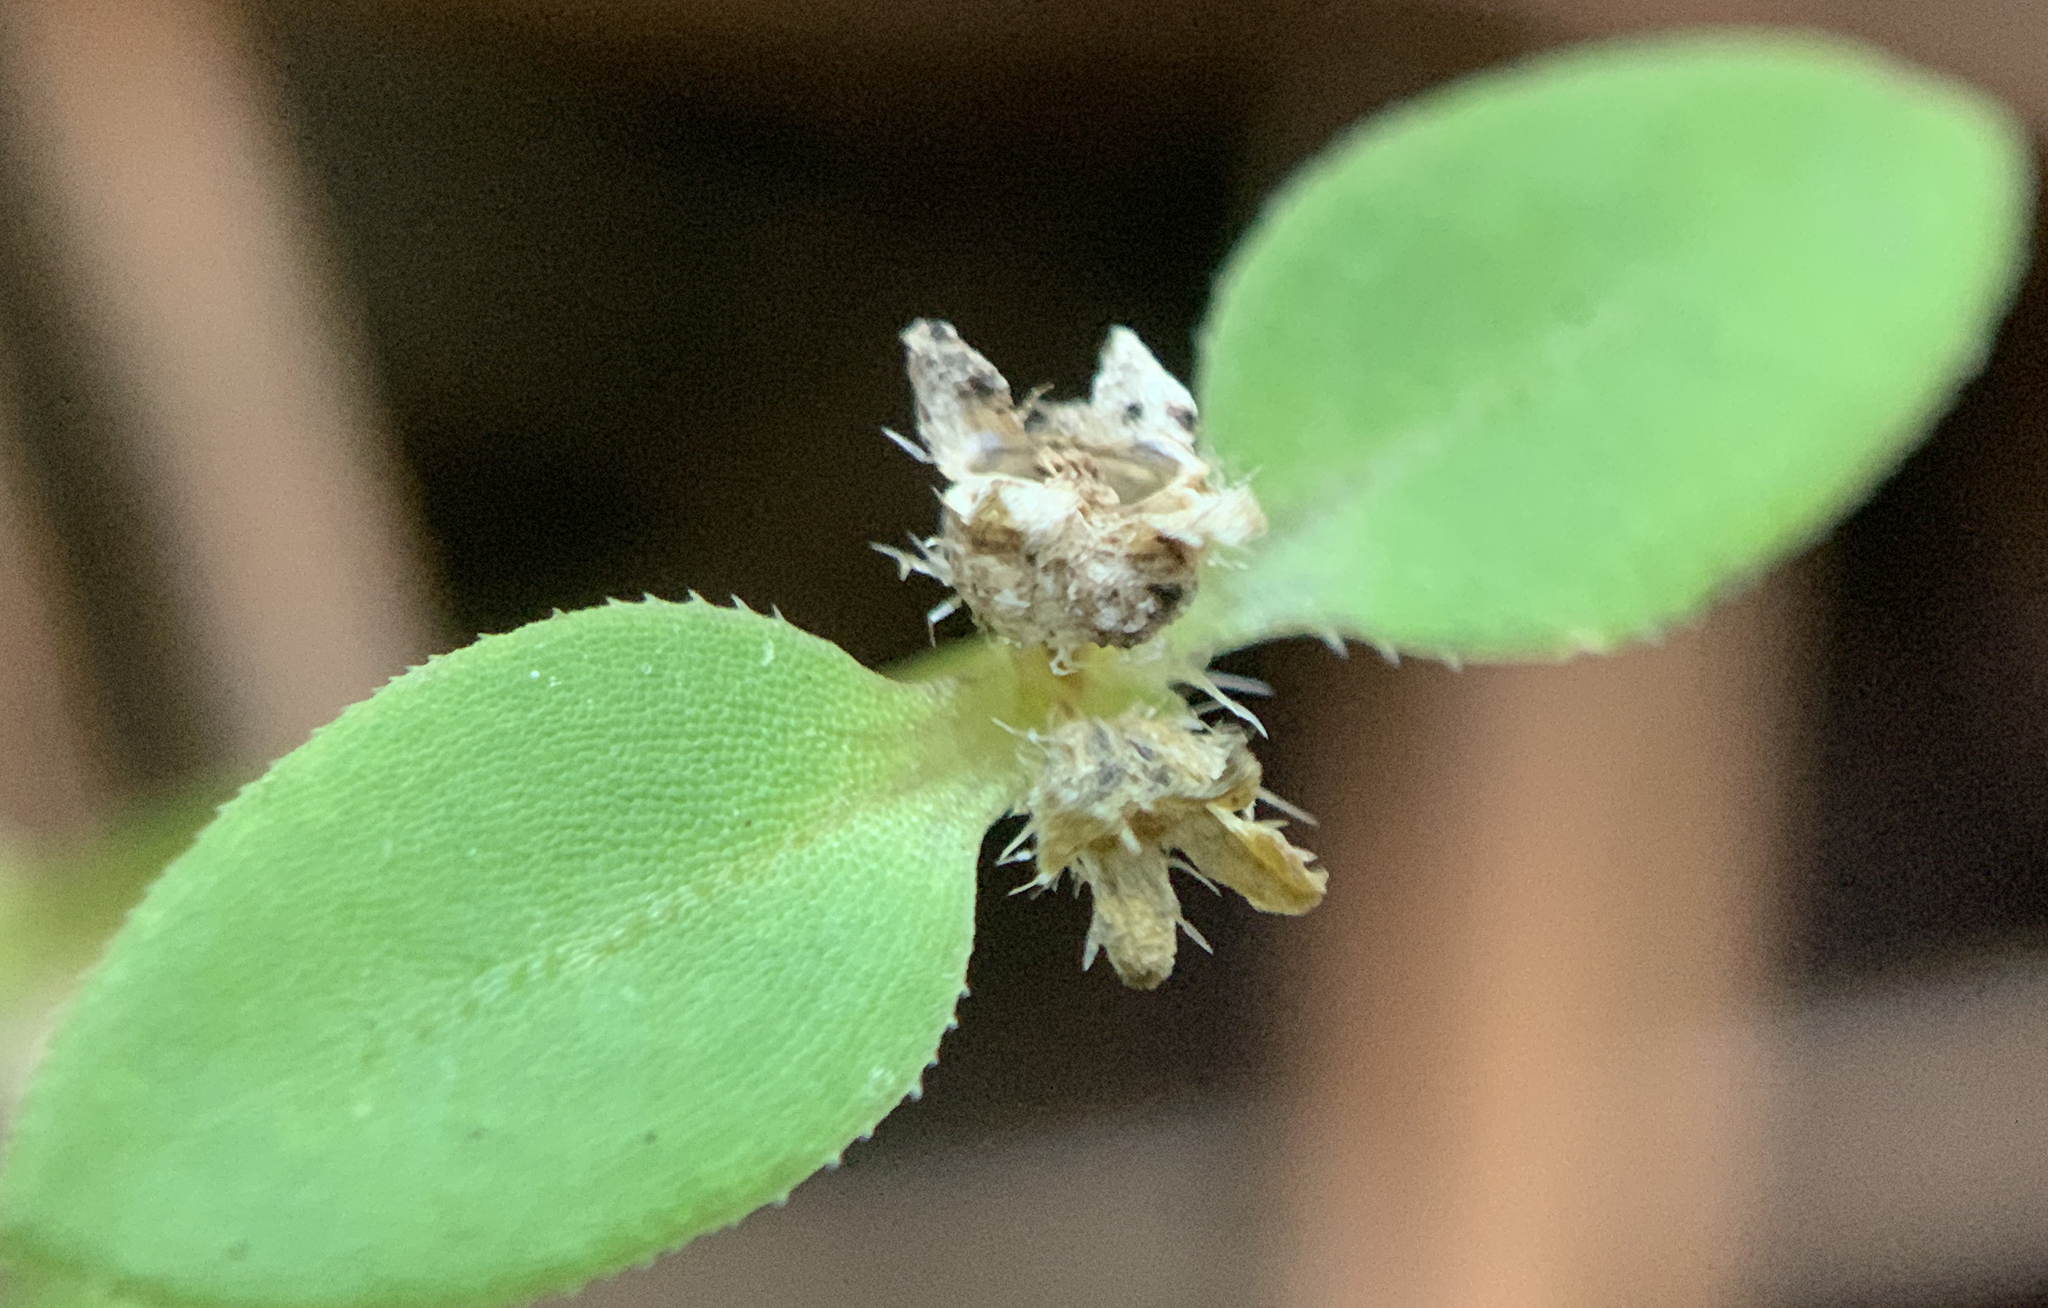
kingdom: Plantae
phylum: Tracheophyta
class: Magnoliopsida
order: Gentianales
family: Rubiaceae
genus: Edrastima
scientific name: Edrastima uniflora
